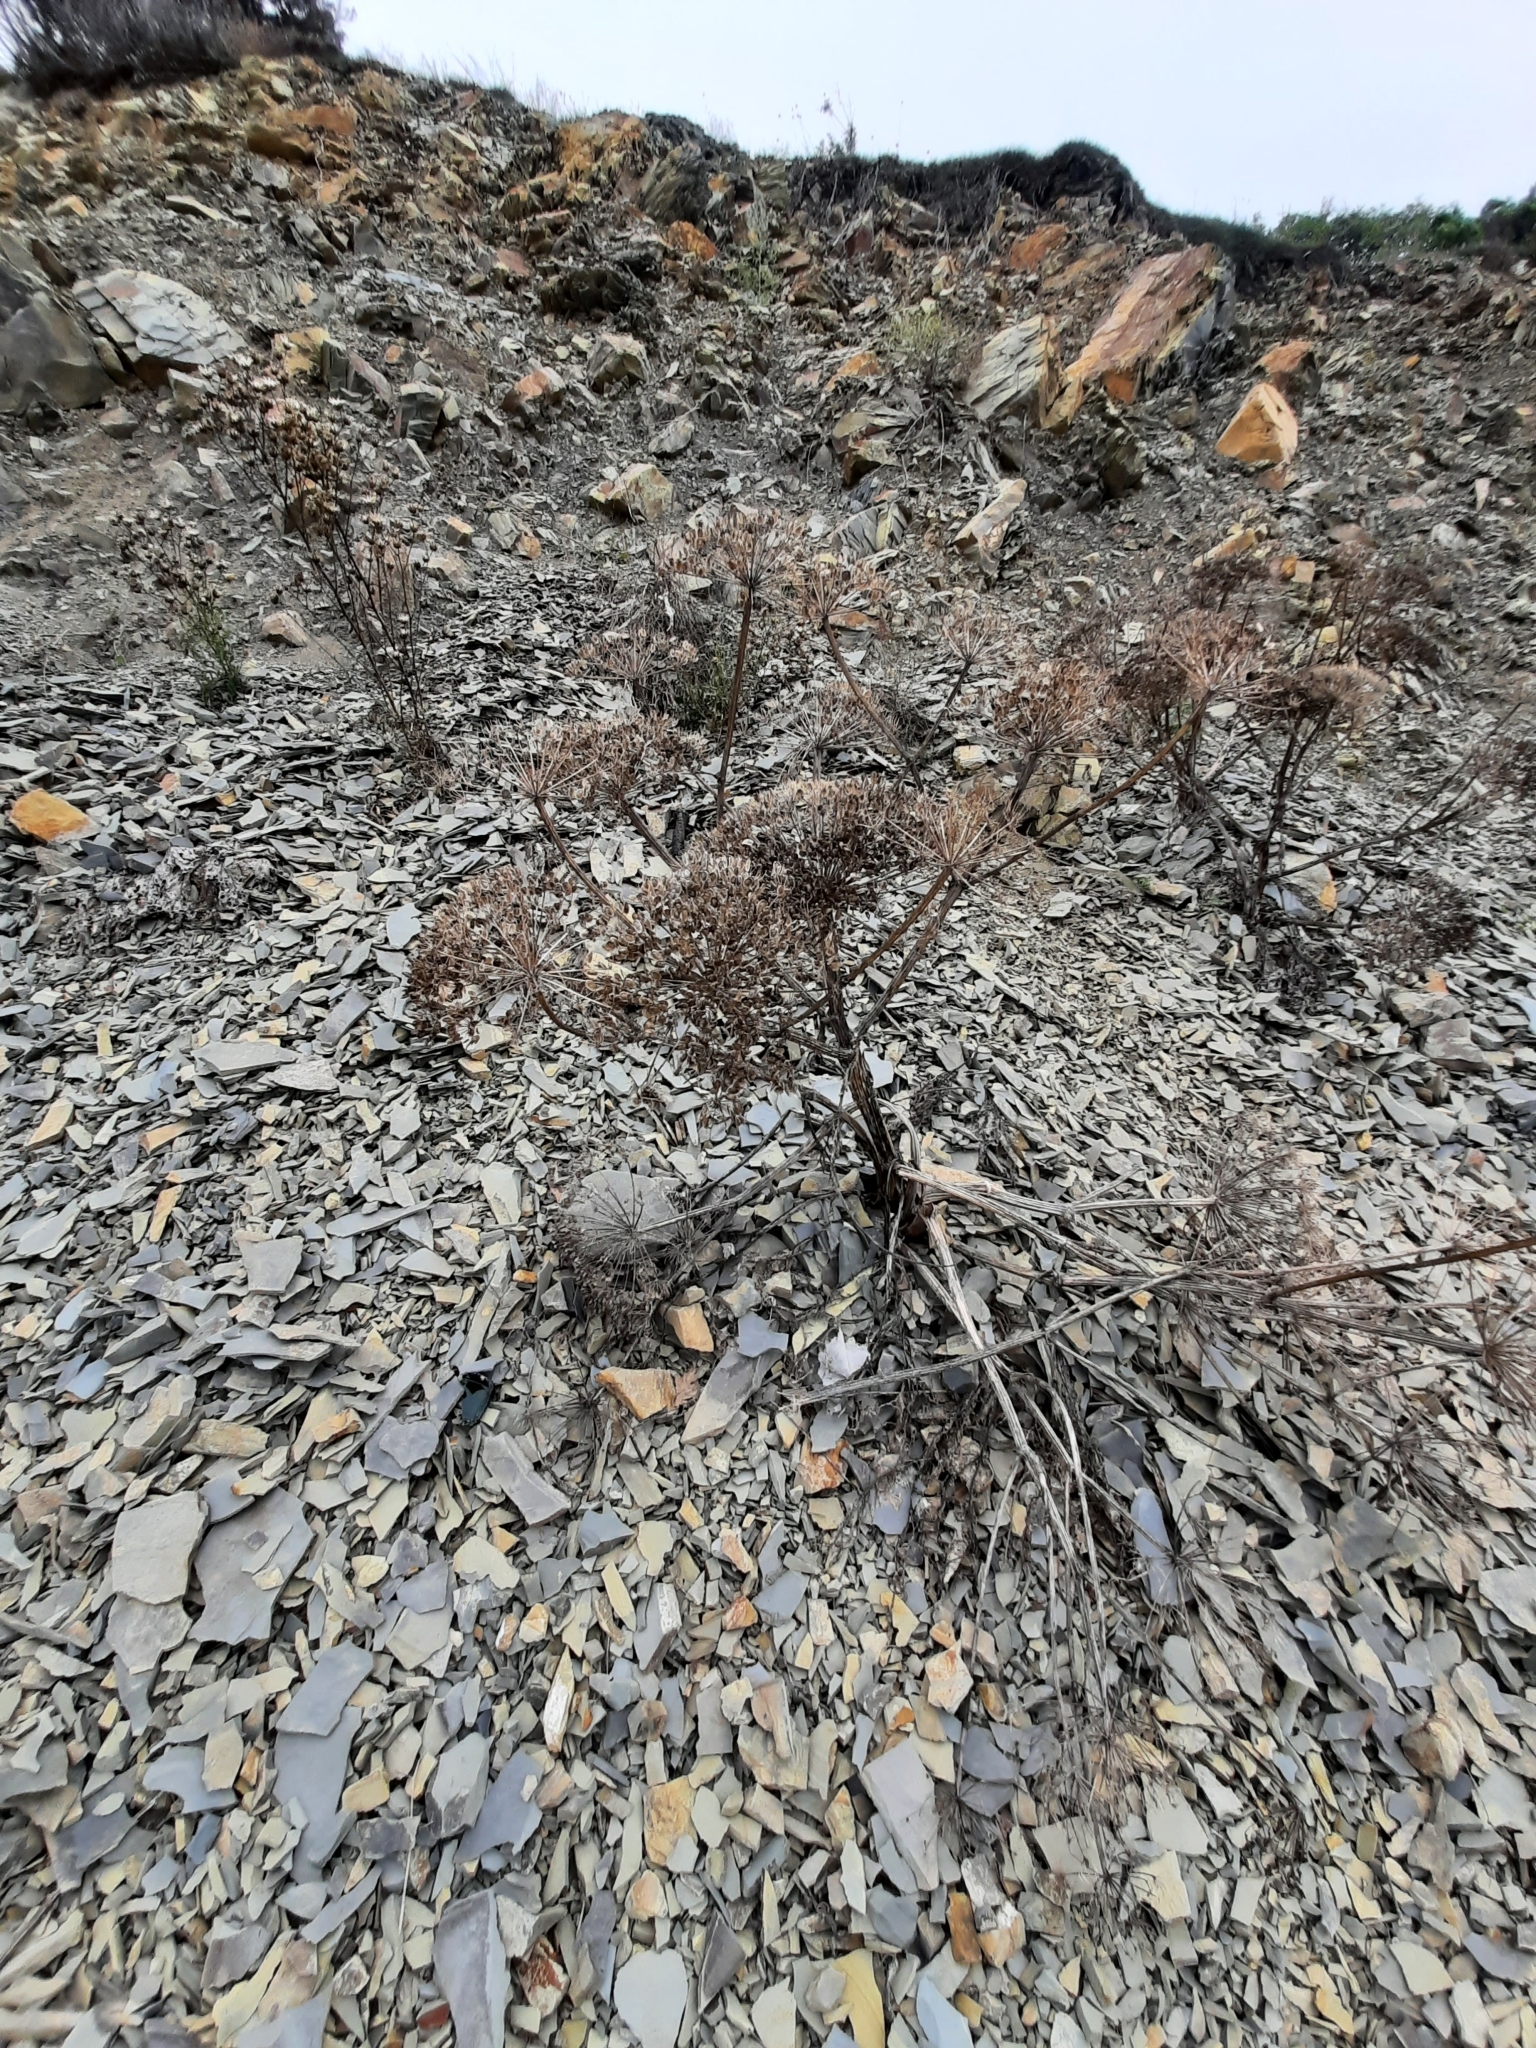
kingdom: Plantae
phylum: Tracheophyta
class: Magnoliopsida
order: Apiales
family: Apiaceae
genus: Heracleum
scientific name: Heracleum stevenii
